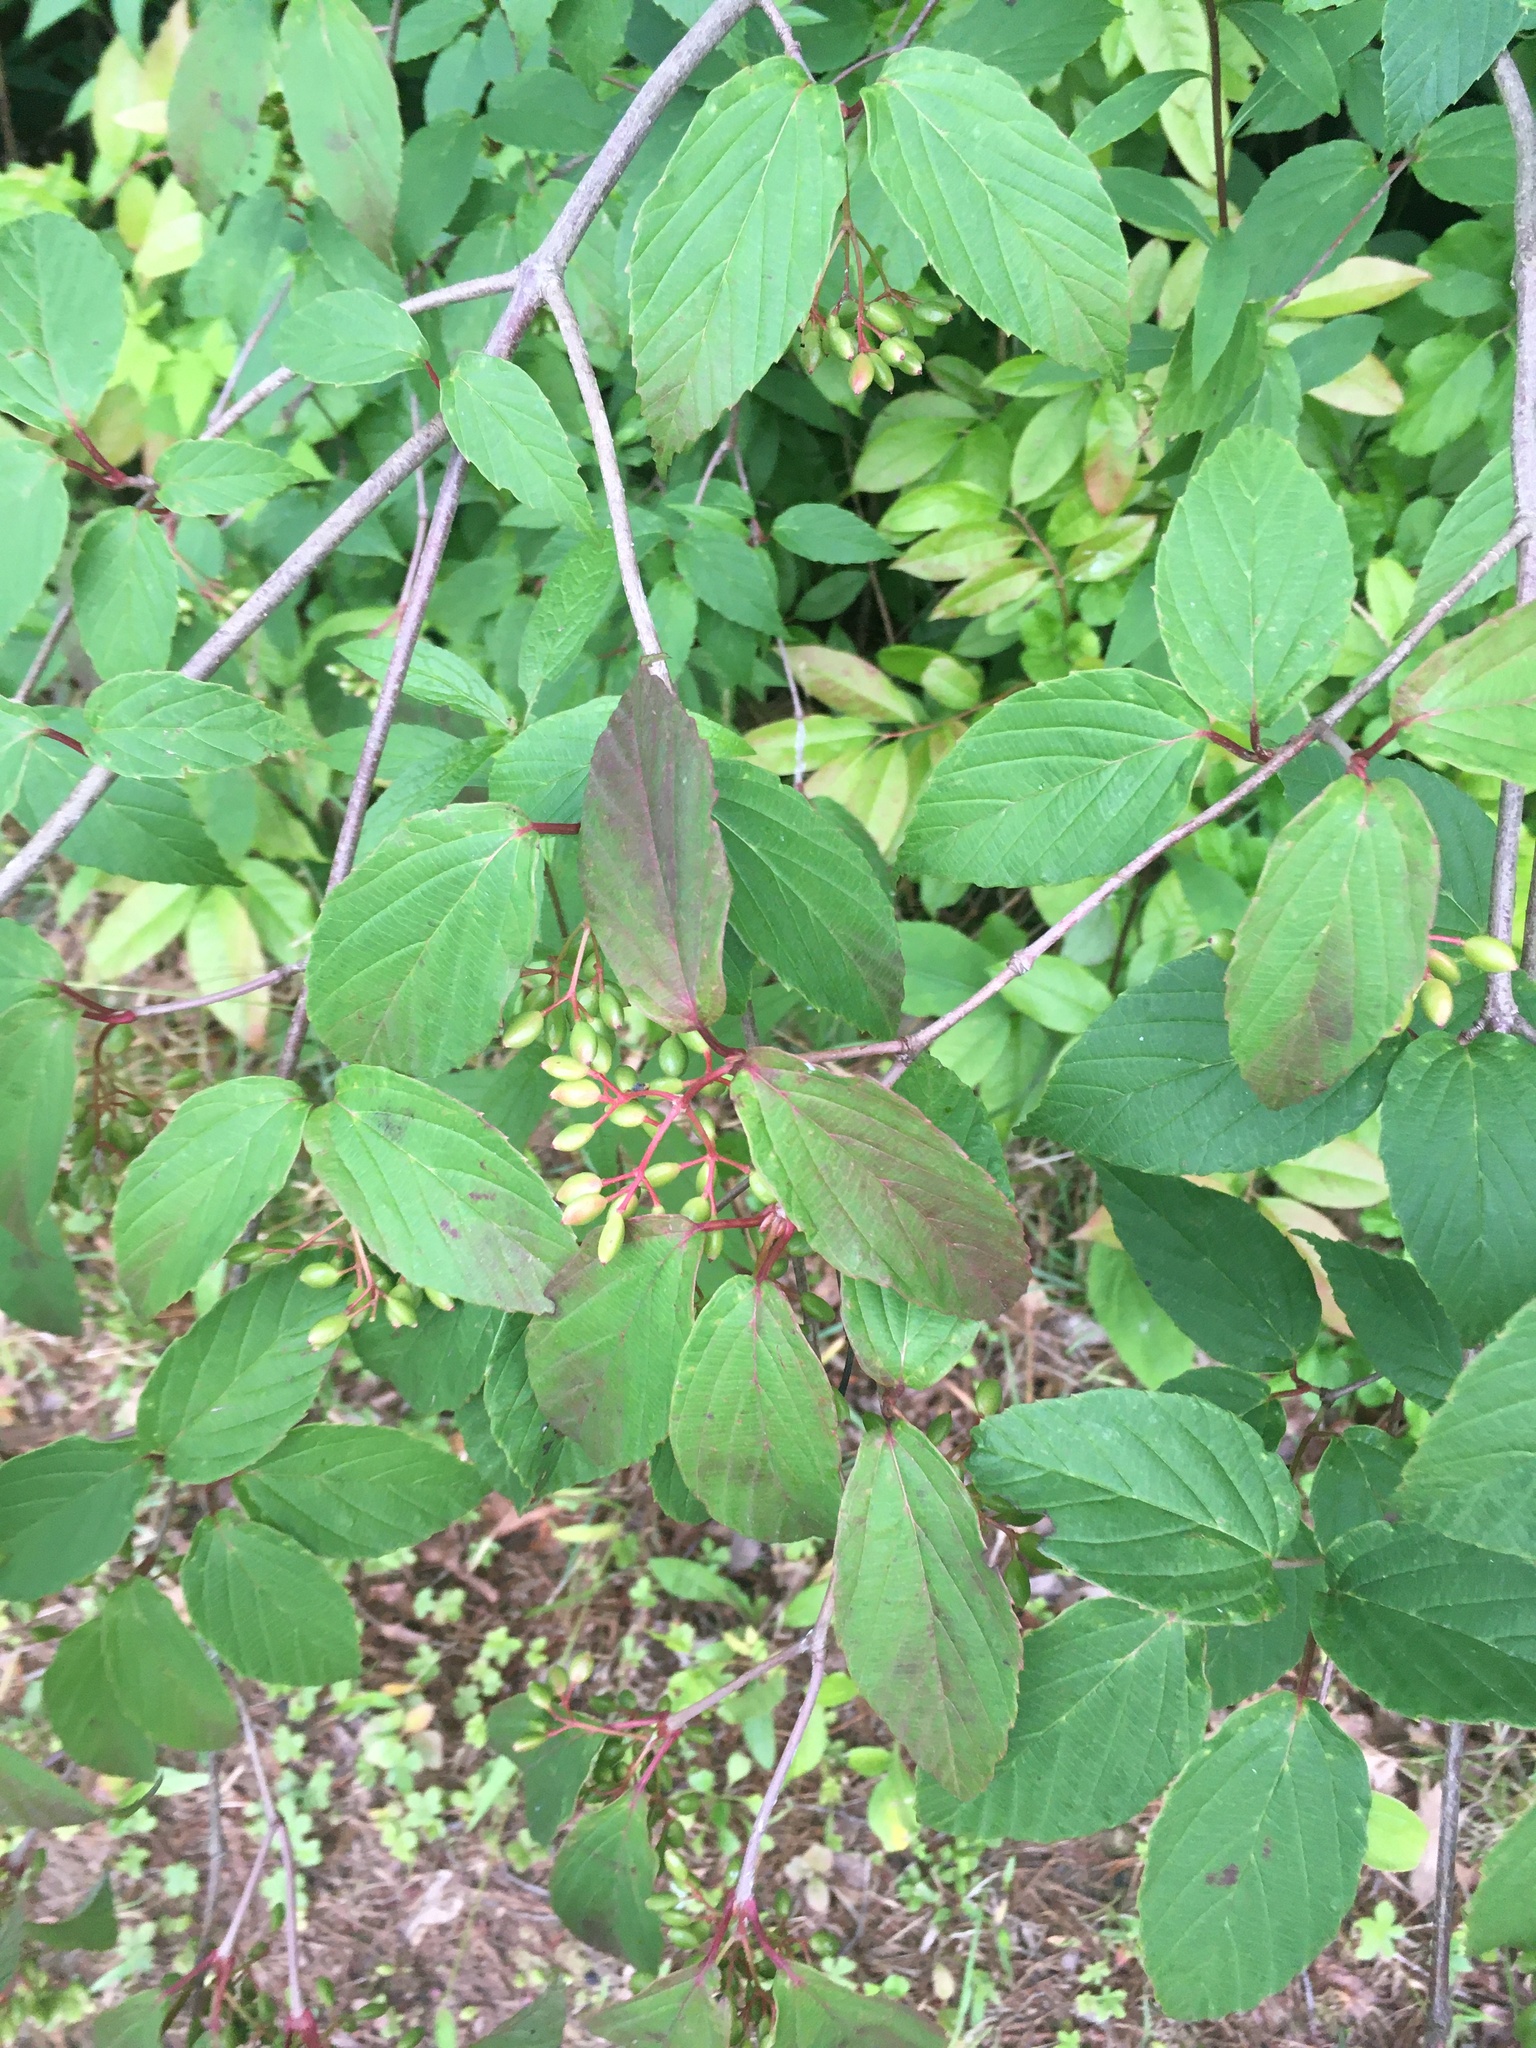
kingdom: Plantae
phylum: Tracheophyta
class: Magnoliopsida
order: Dipsacales
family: Viburnaceae
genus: Viburnum
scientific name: Viburnum setigerum
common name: Tea viburnum
